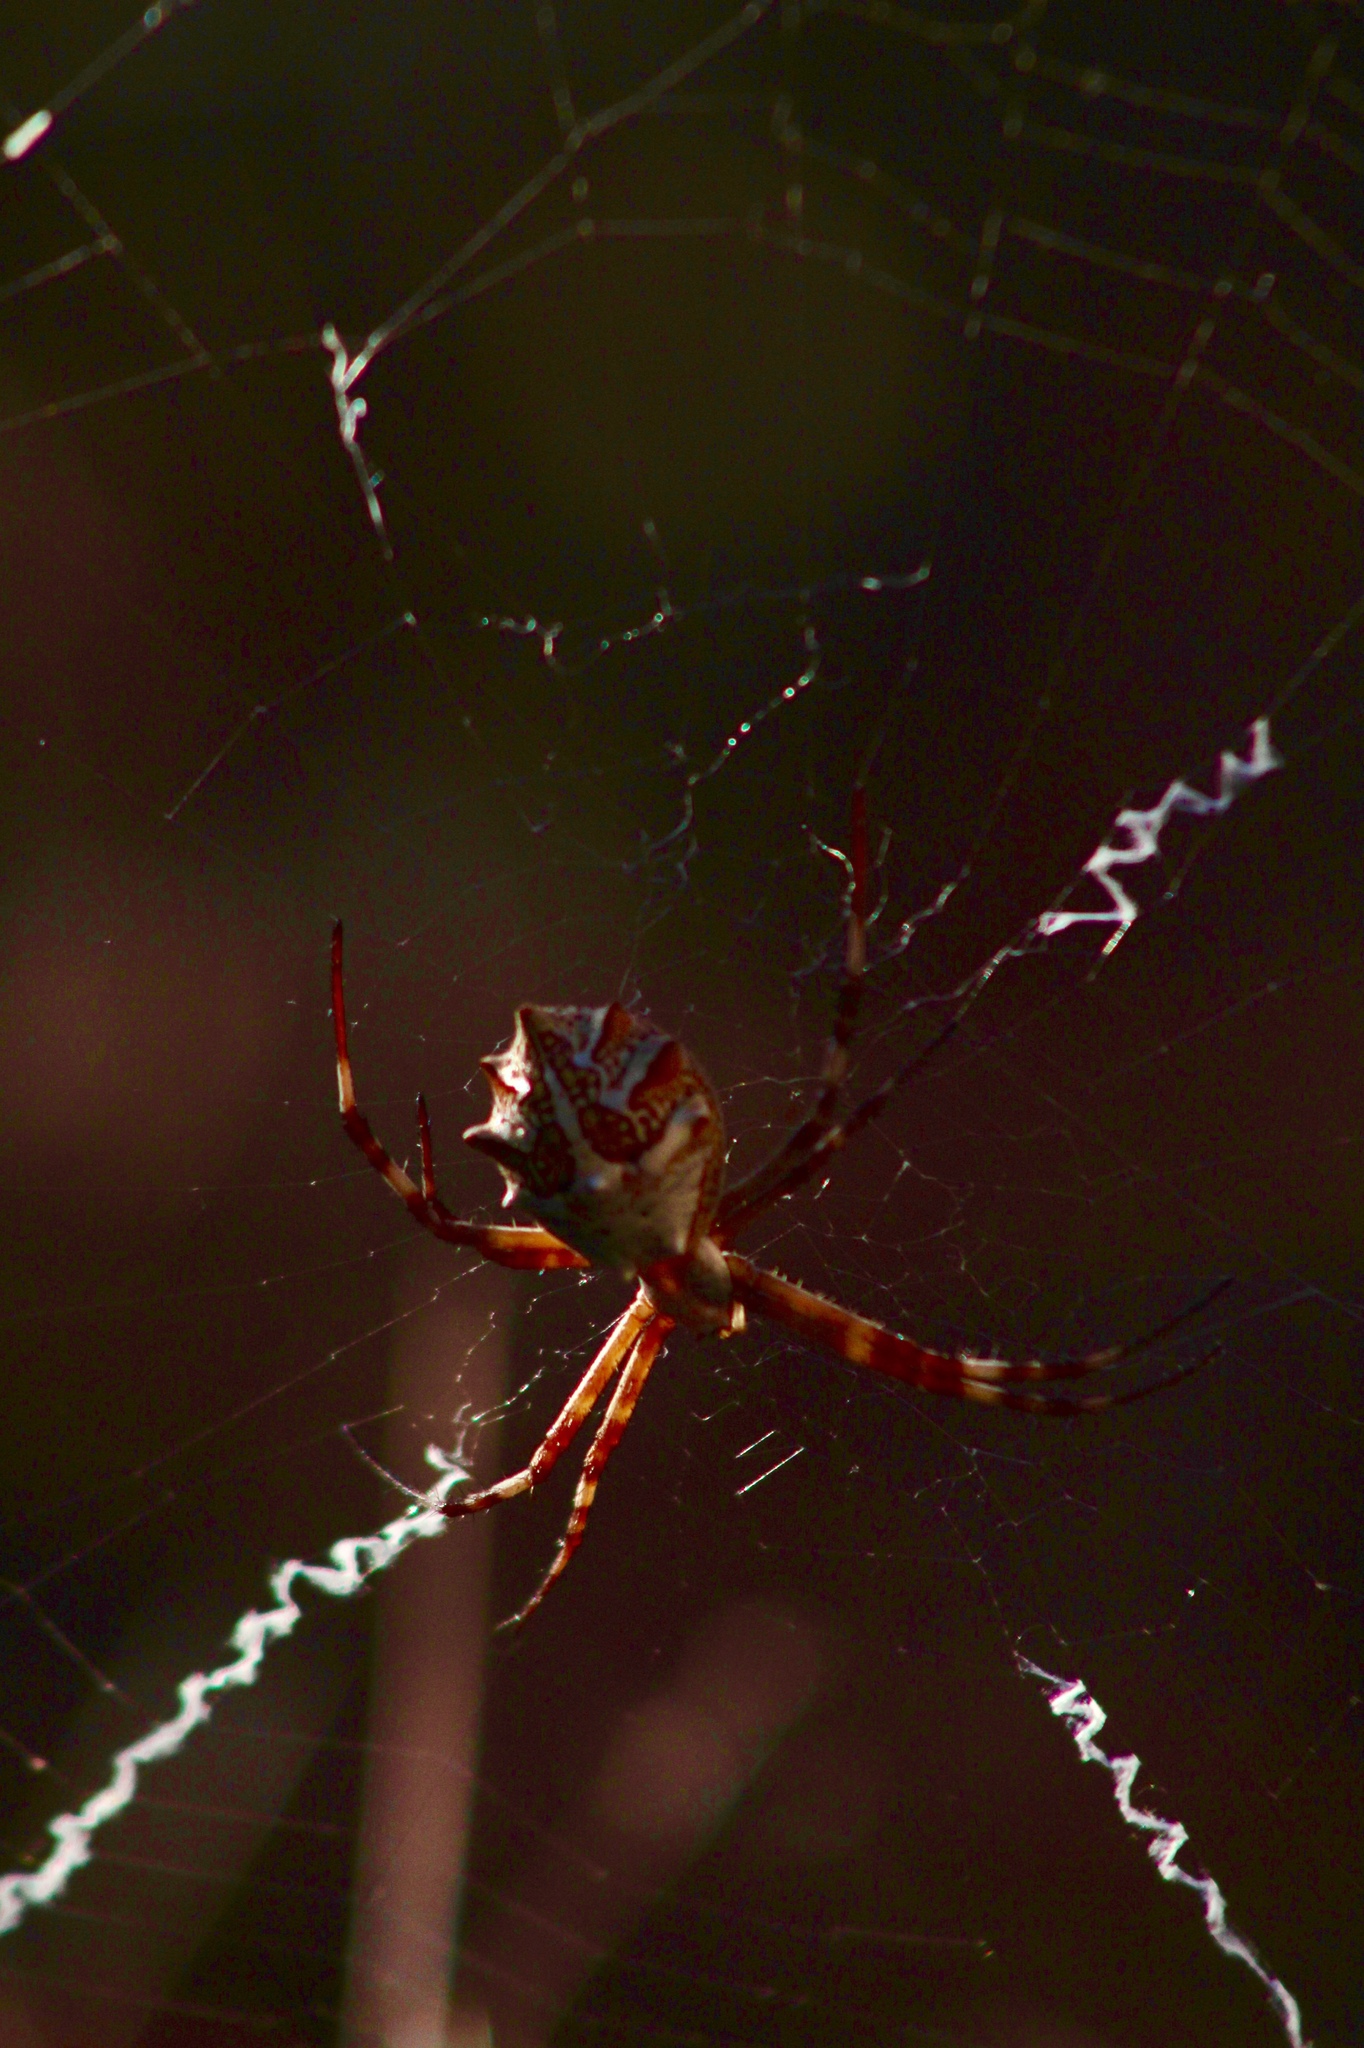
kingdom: Animalia
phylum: Arthropoda
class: Arachnida
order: Araneae
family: Araneidae
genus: Argiope
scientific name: Argiope argentata
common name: Orb weavers
